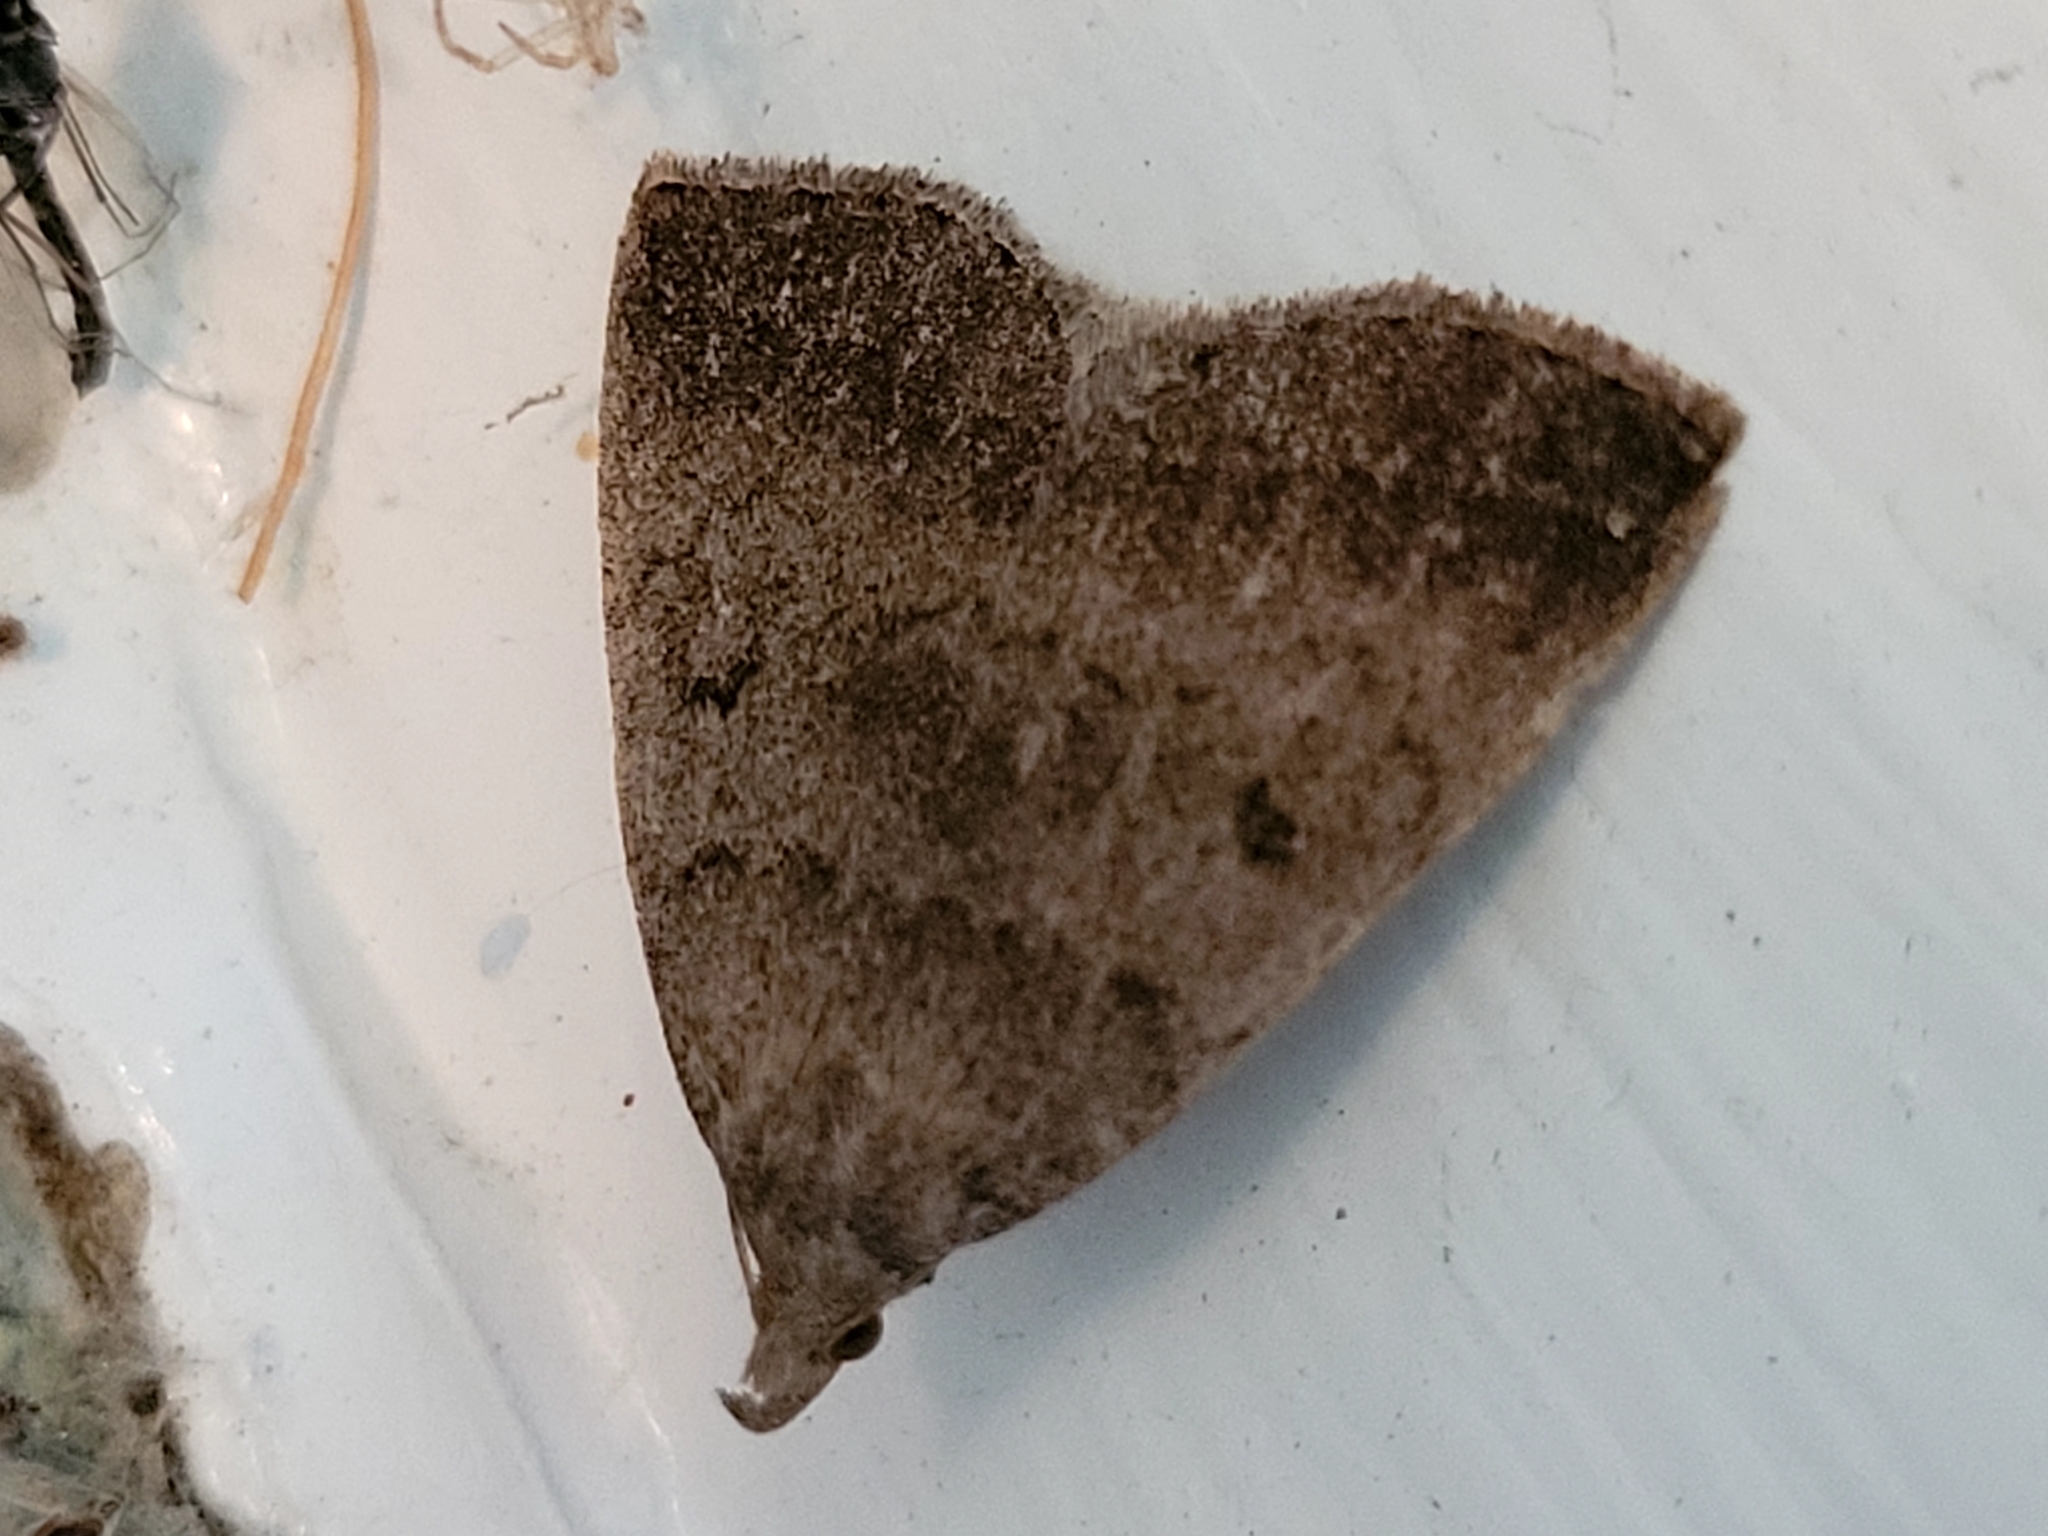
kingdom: Animalia
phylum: Arthropoda
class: Insecta
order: Lepidoptera
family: Erebidae
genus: Zanclognatha
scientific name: Zanclognatha jacchusalis
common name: Yellowish zanclognatha
